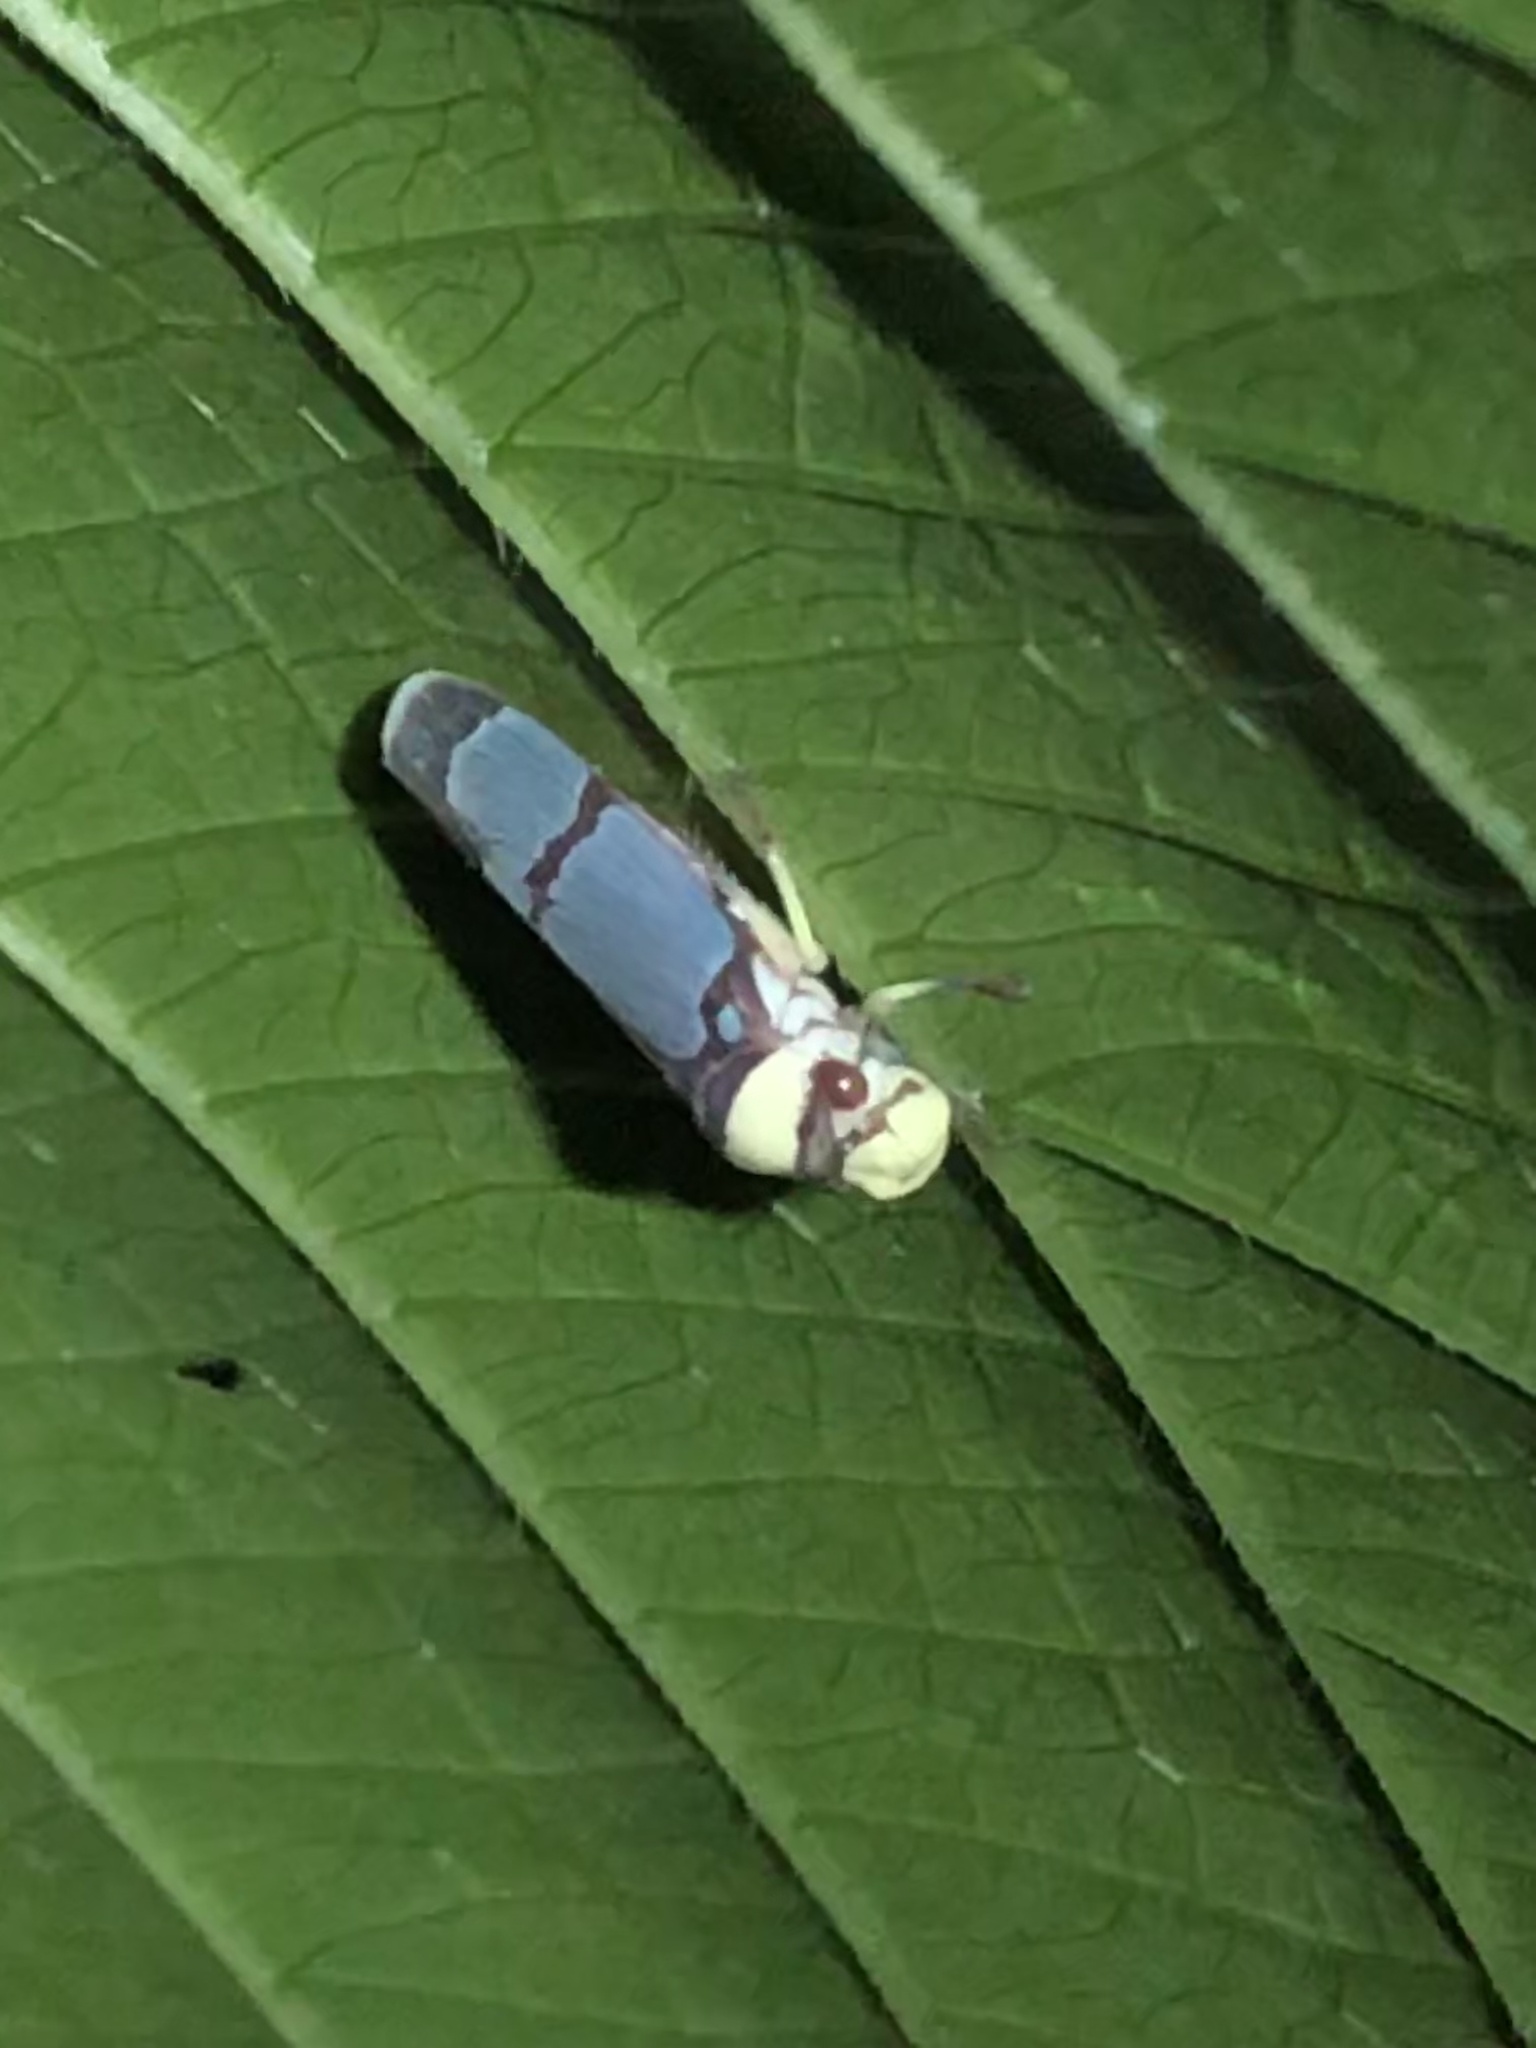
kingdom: Animalia
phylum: Arthropoda
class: Insecta
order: Hemiptera
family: Cicadellidae
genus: Pseudometopia
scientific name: Pseudometopia phalaesia
